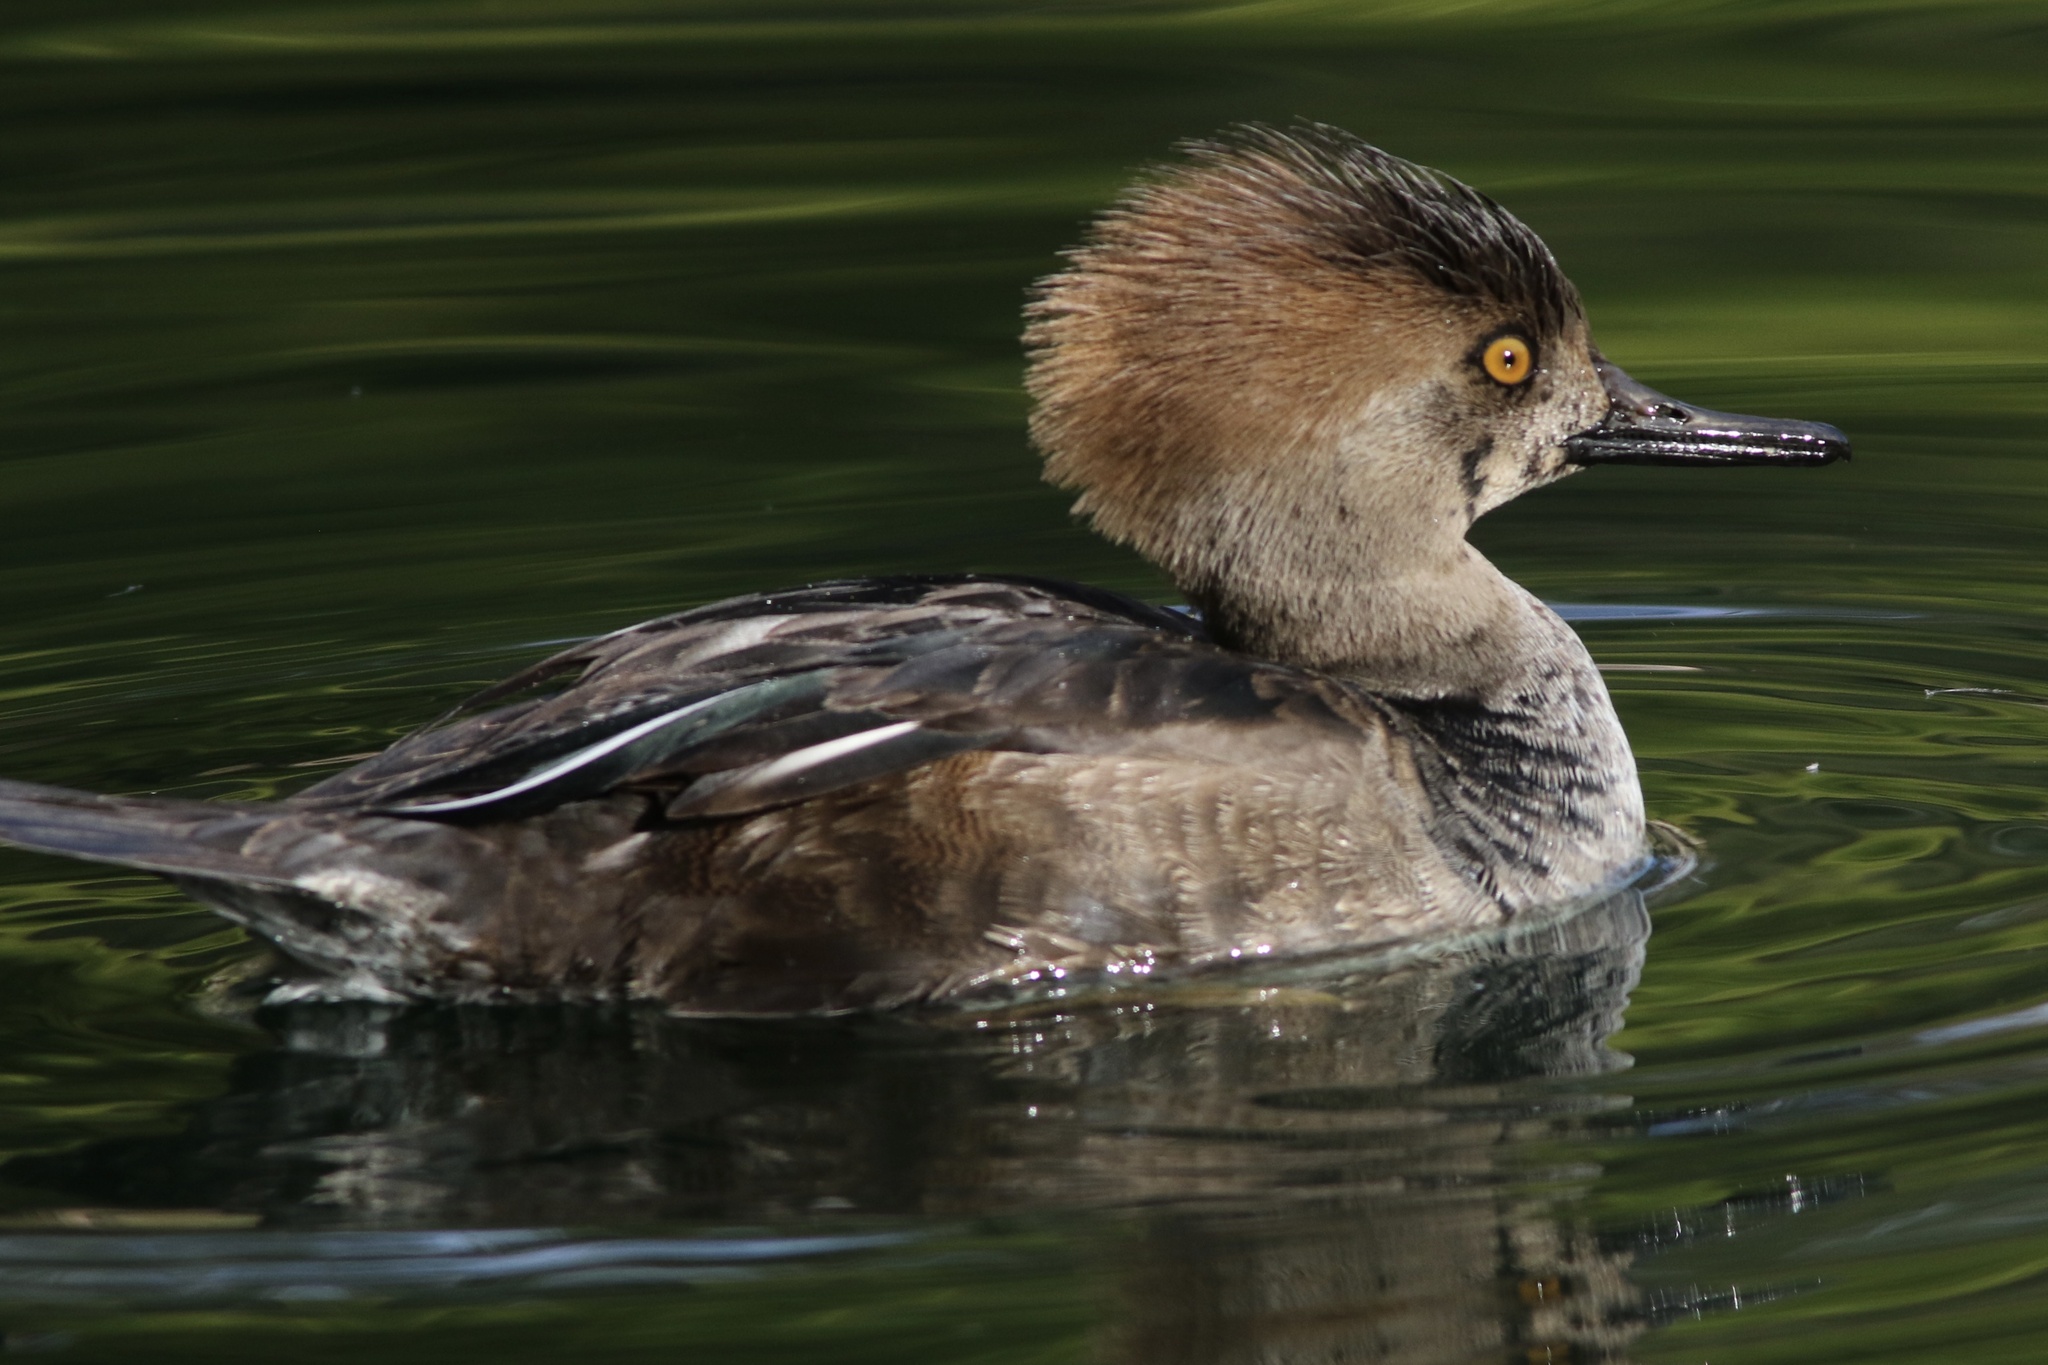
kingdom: Animalia
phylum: Chordata
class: Aves
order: Anseriformes
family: Anatidae
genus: Lophodytes
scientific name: Lophodytes cucullatus
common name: Hooded merganser
